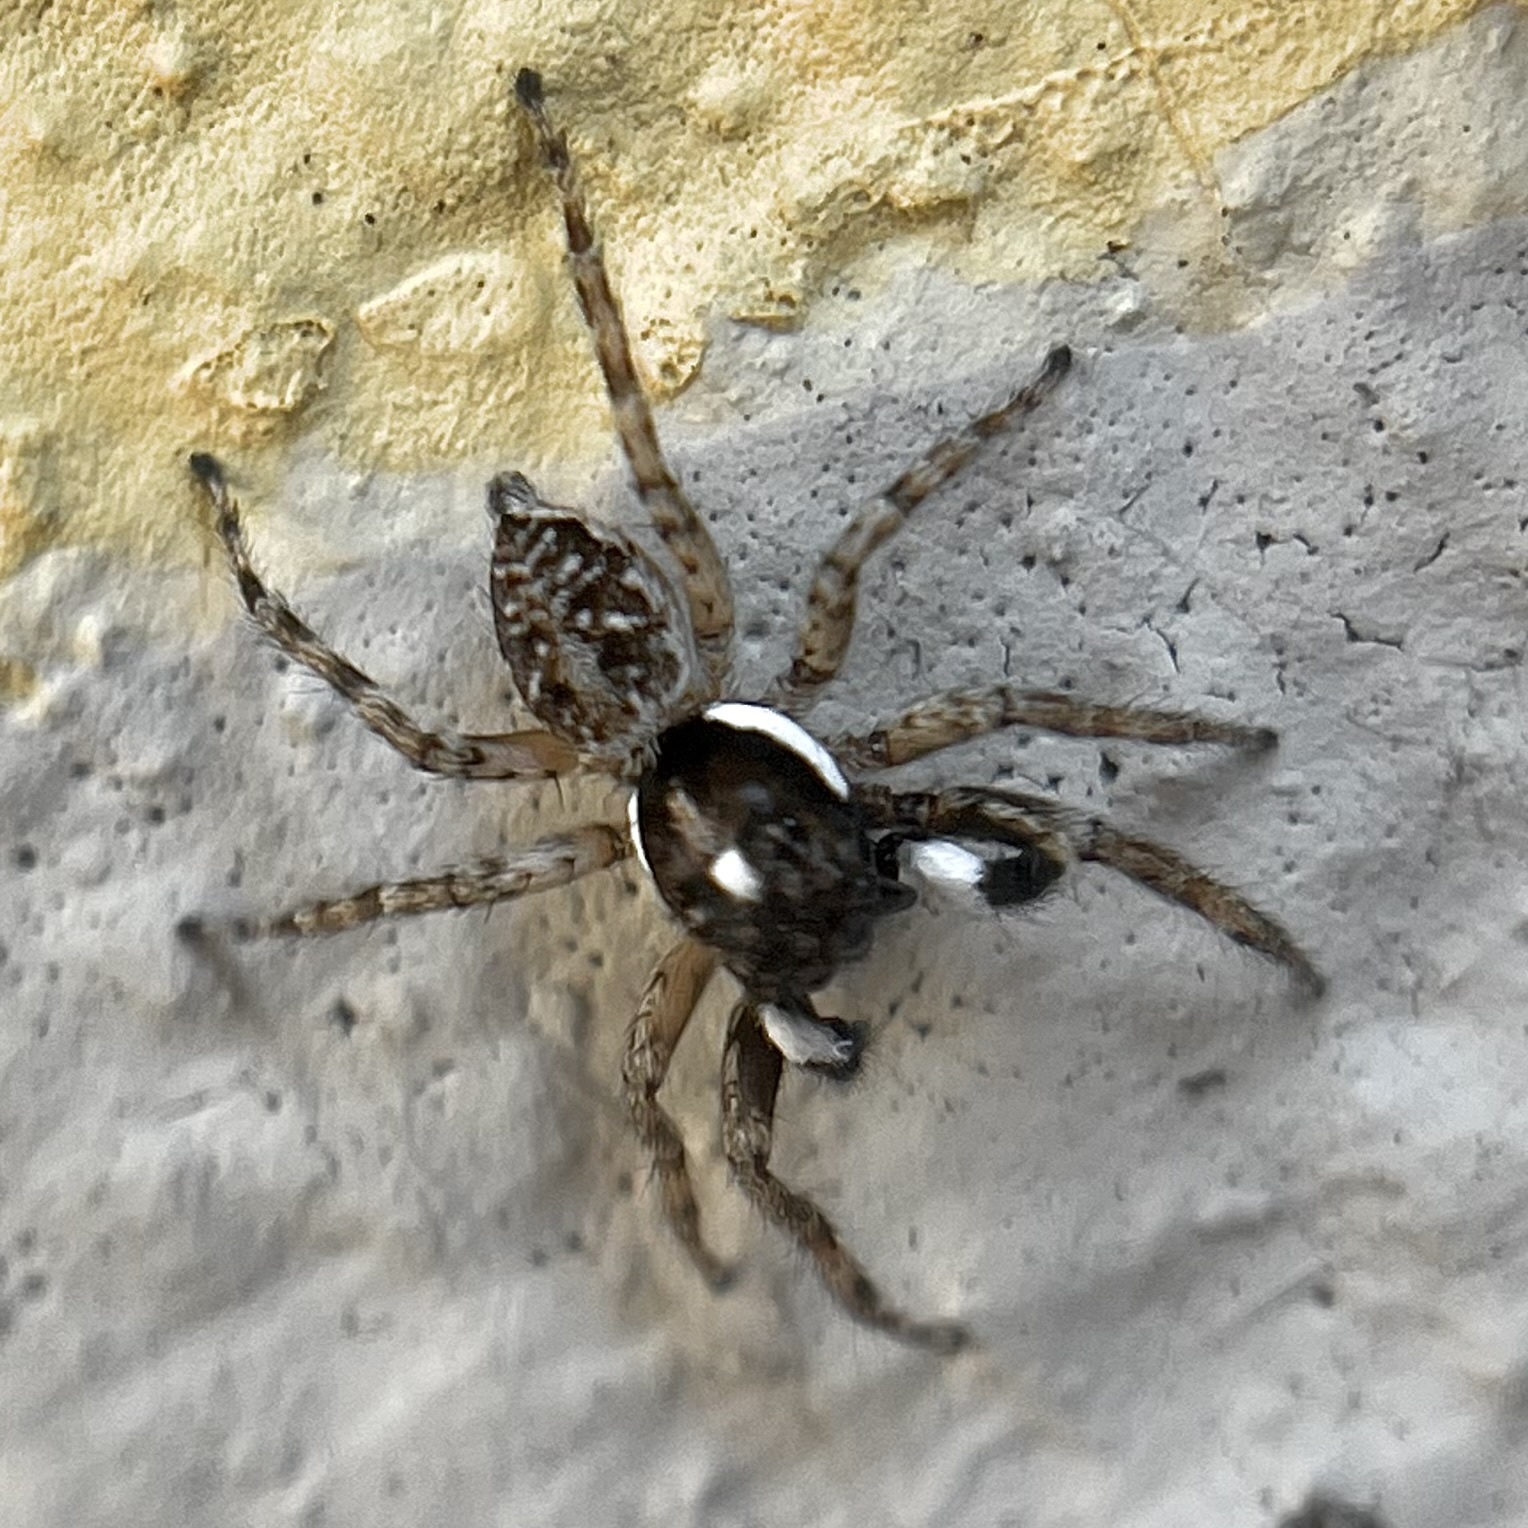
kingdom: Animalia
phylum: Arthropoda
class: Arachnida
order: Araneae
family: Salticidae
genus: Menemerus
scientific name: Menemerus semilimbatus
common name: Jumping spider
